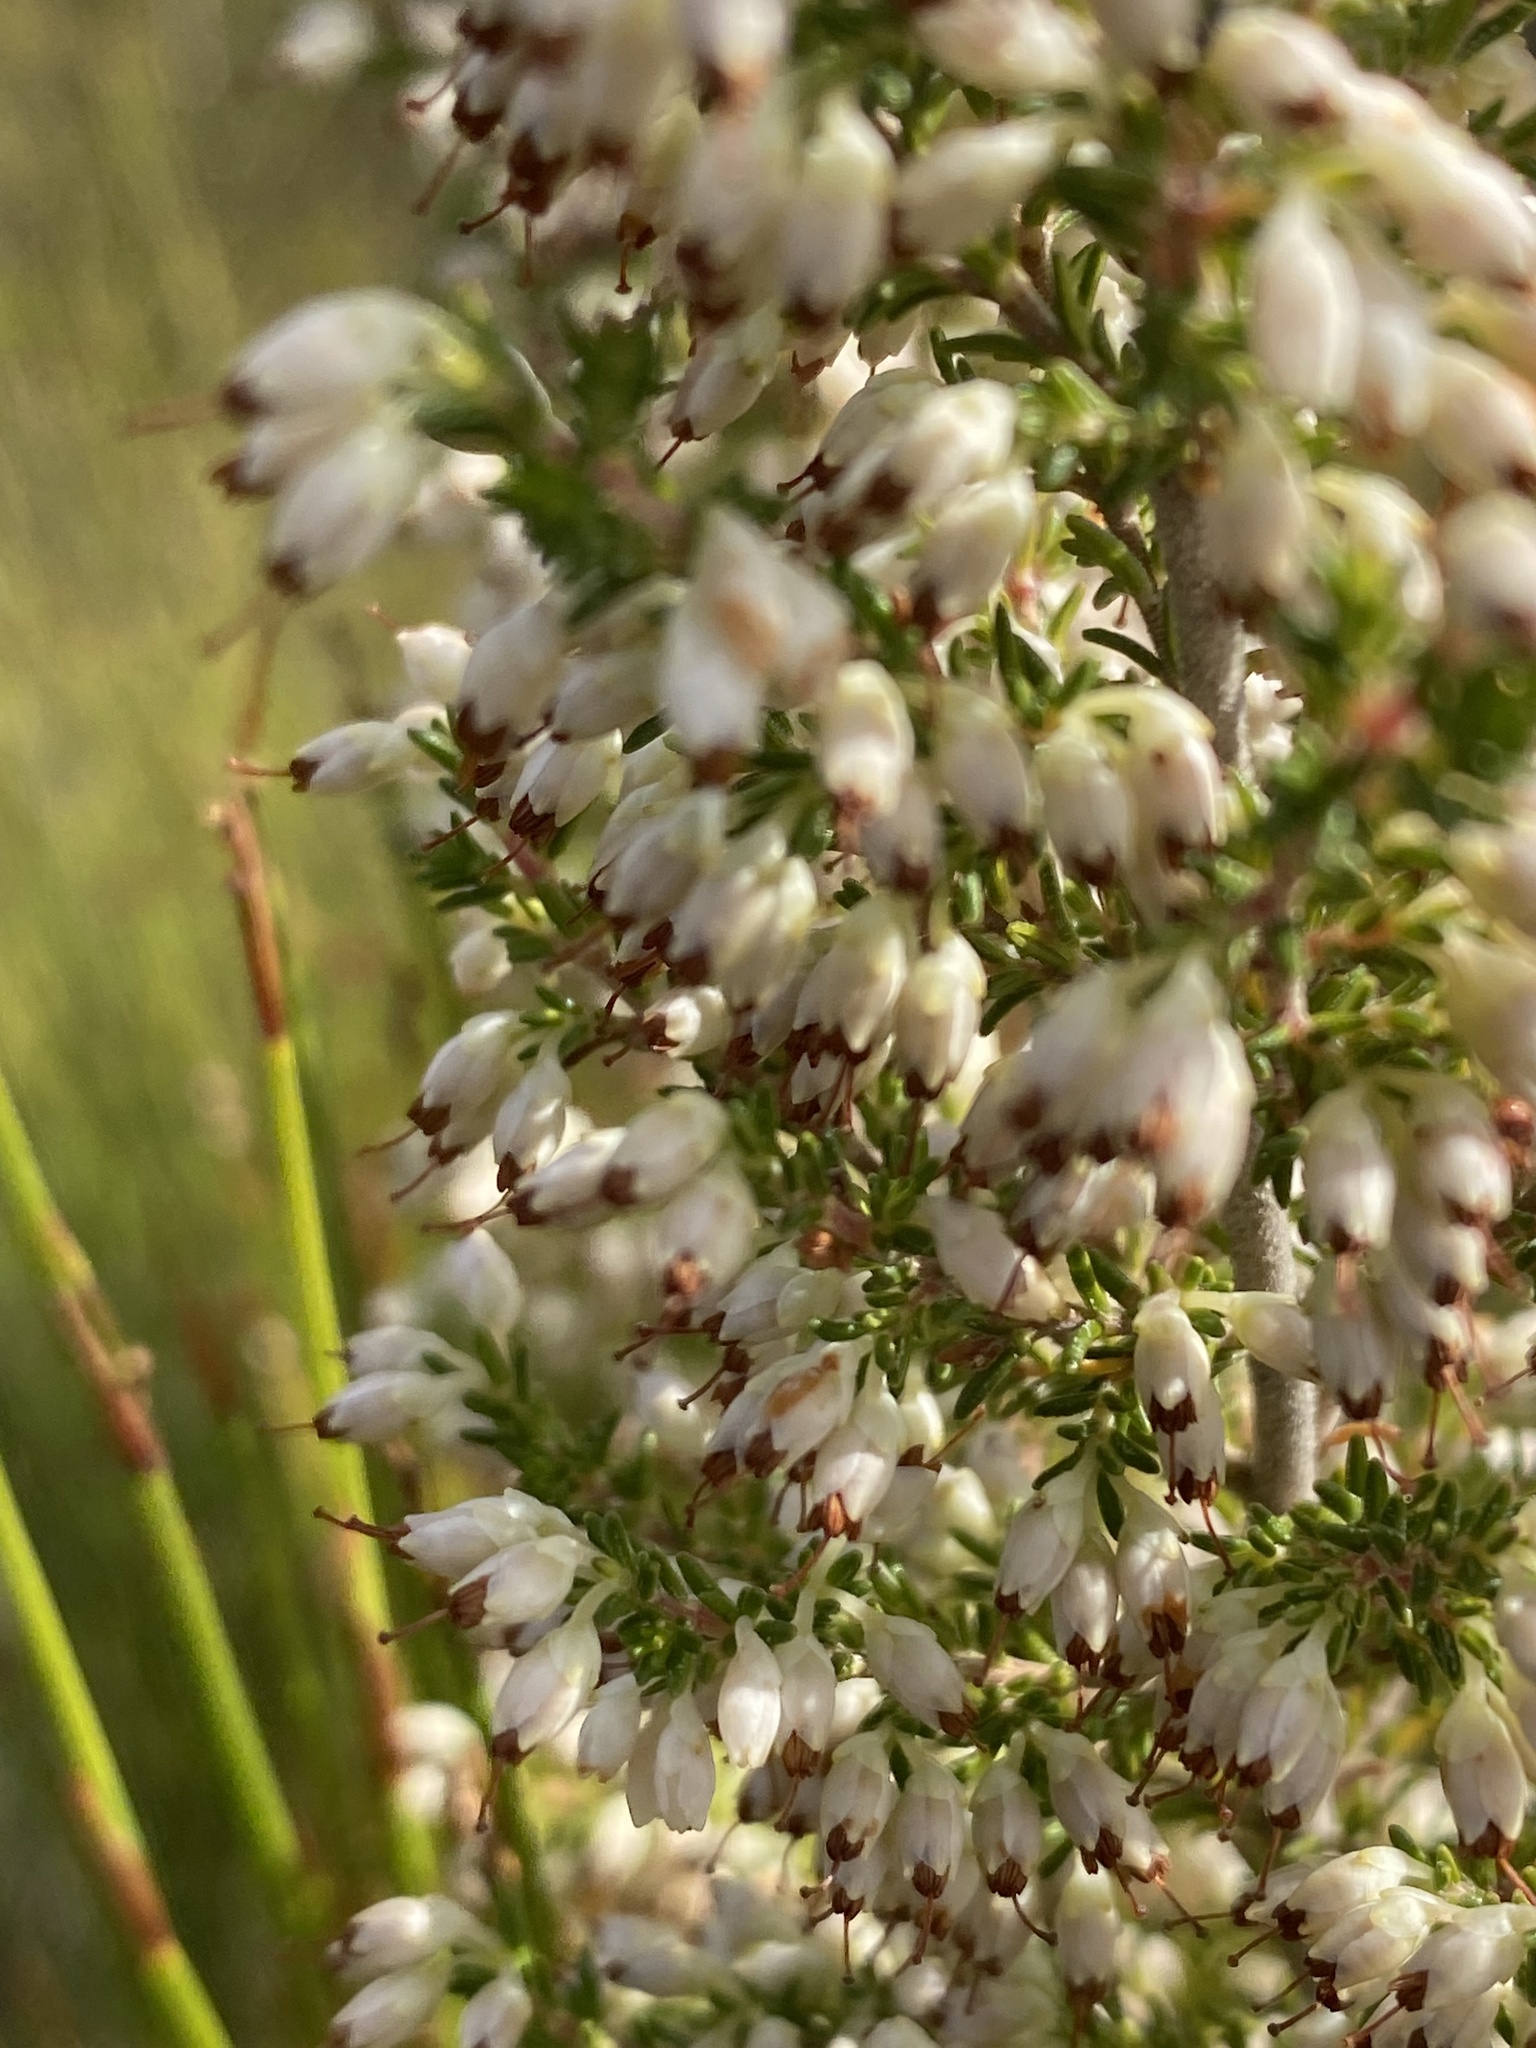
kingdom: Plantae
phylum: Tracheophyta
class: Magnoliopsida
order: Ericales
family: Ericaceae
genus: Erica
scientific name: Erica lasciva
